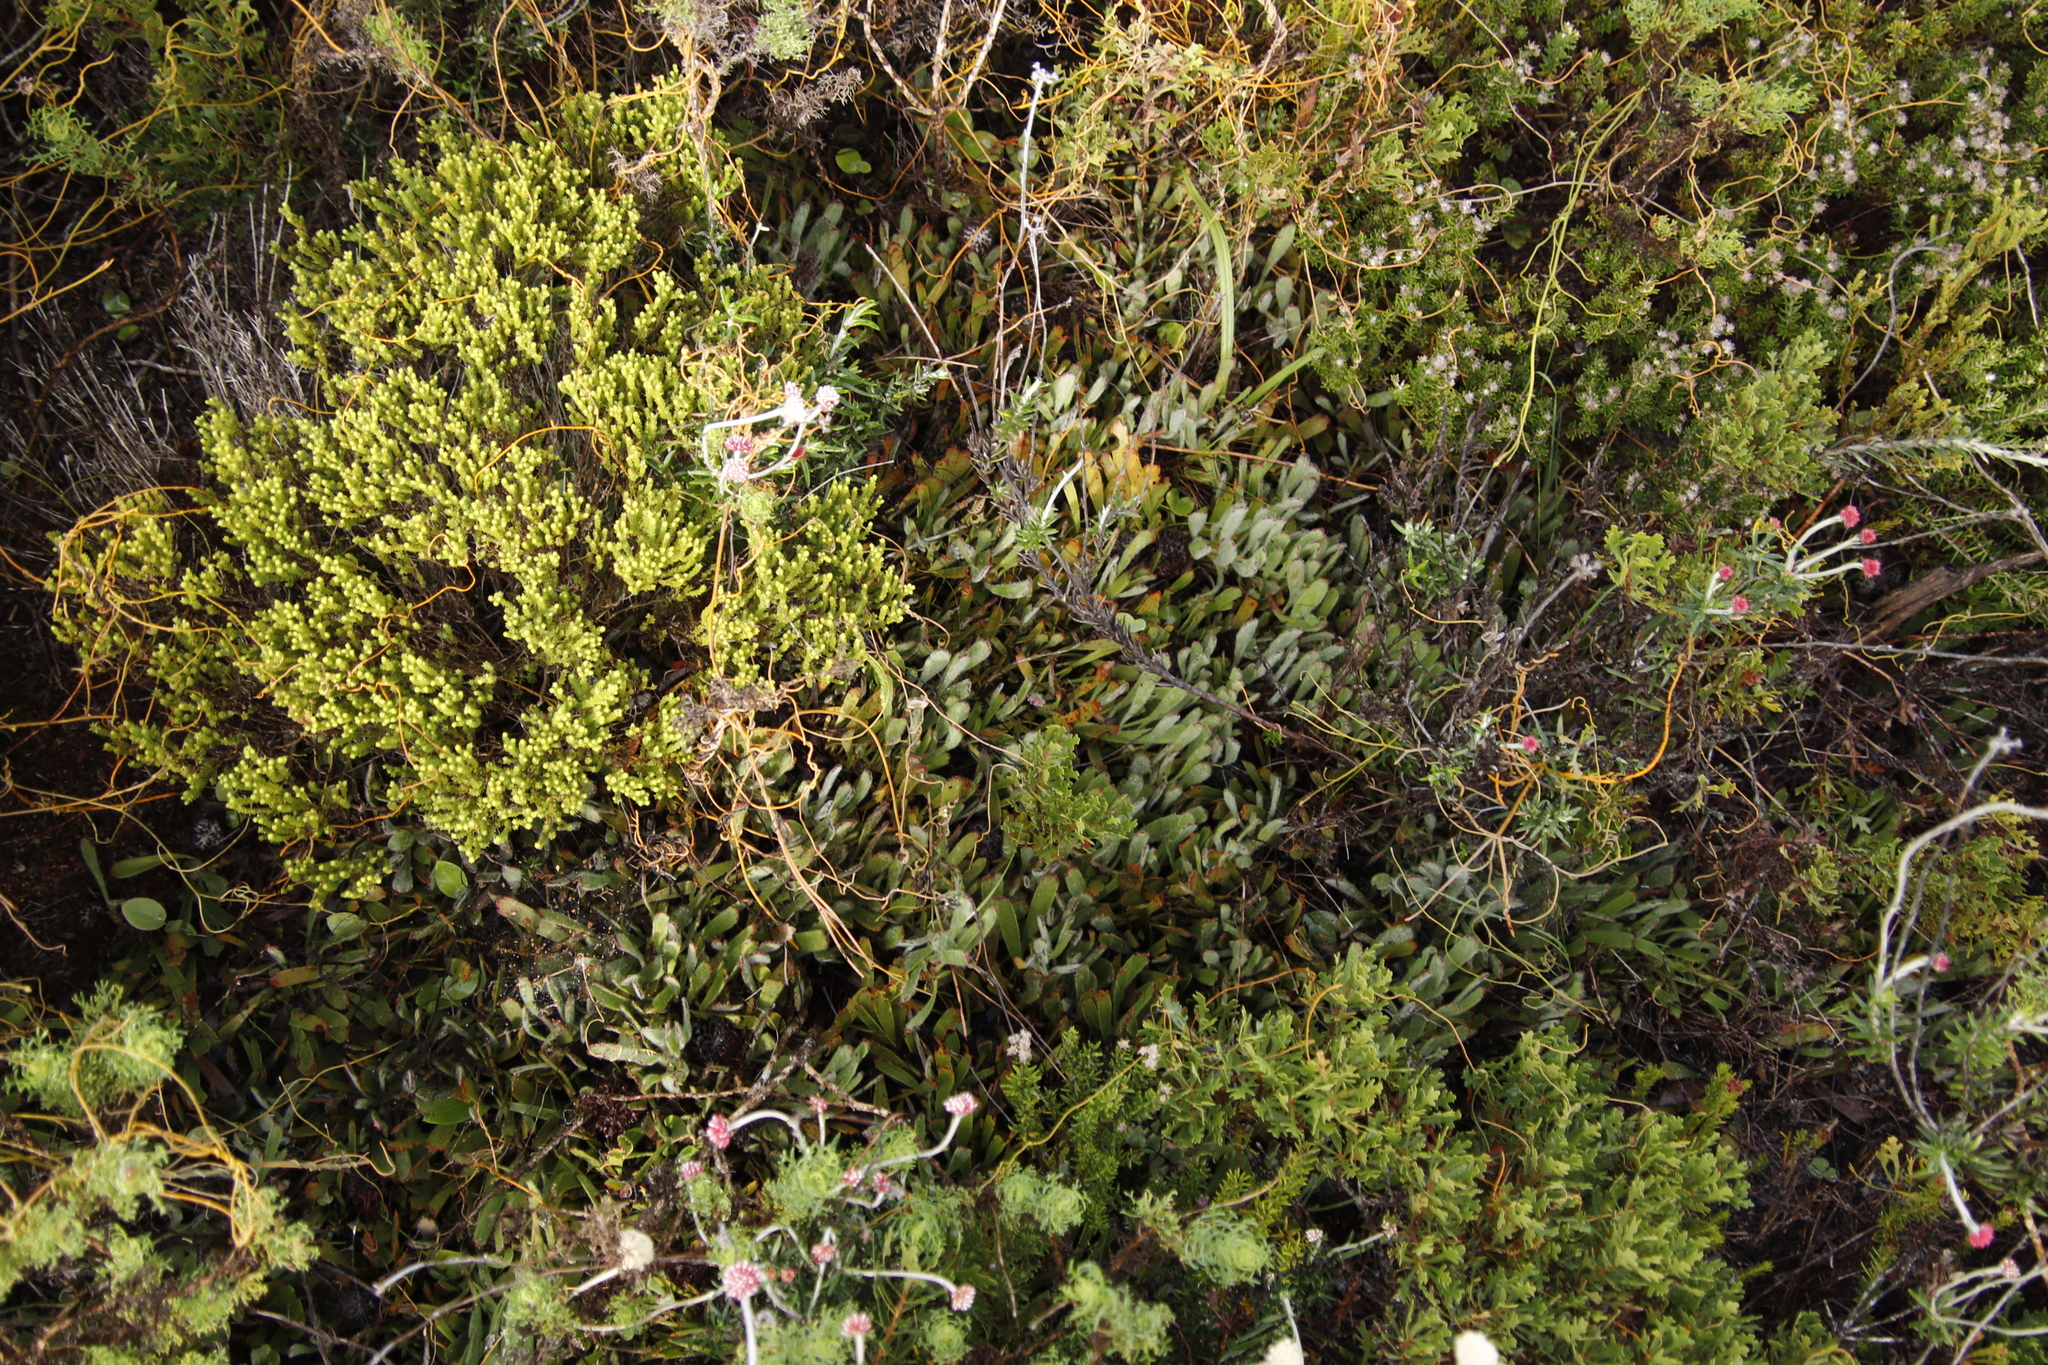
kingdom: Plantae
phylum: Tracheophyta
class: Magnoliopsida
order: Proteales
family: Proteaceae
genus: Leucospermum
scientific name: Leucospermum hypophyllocarpodendron
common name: Snakestem pincushion
